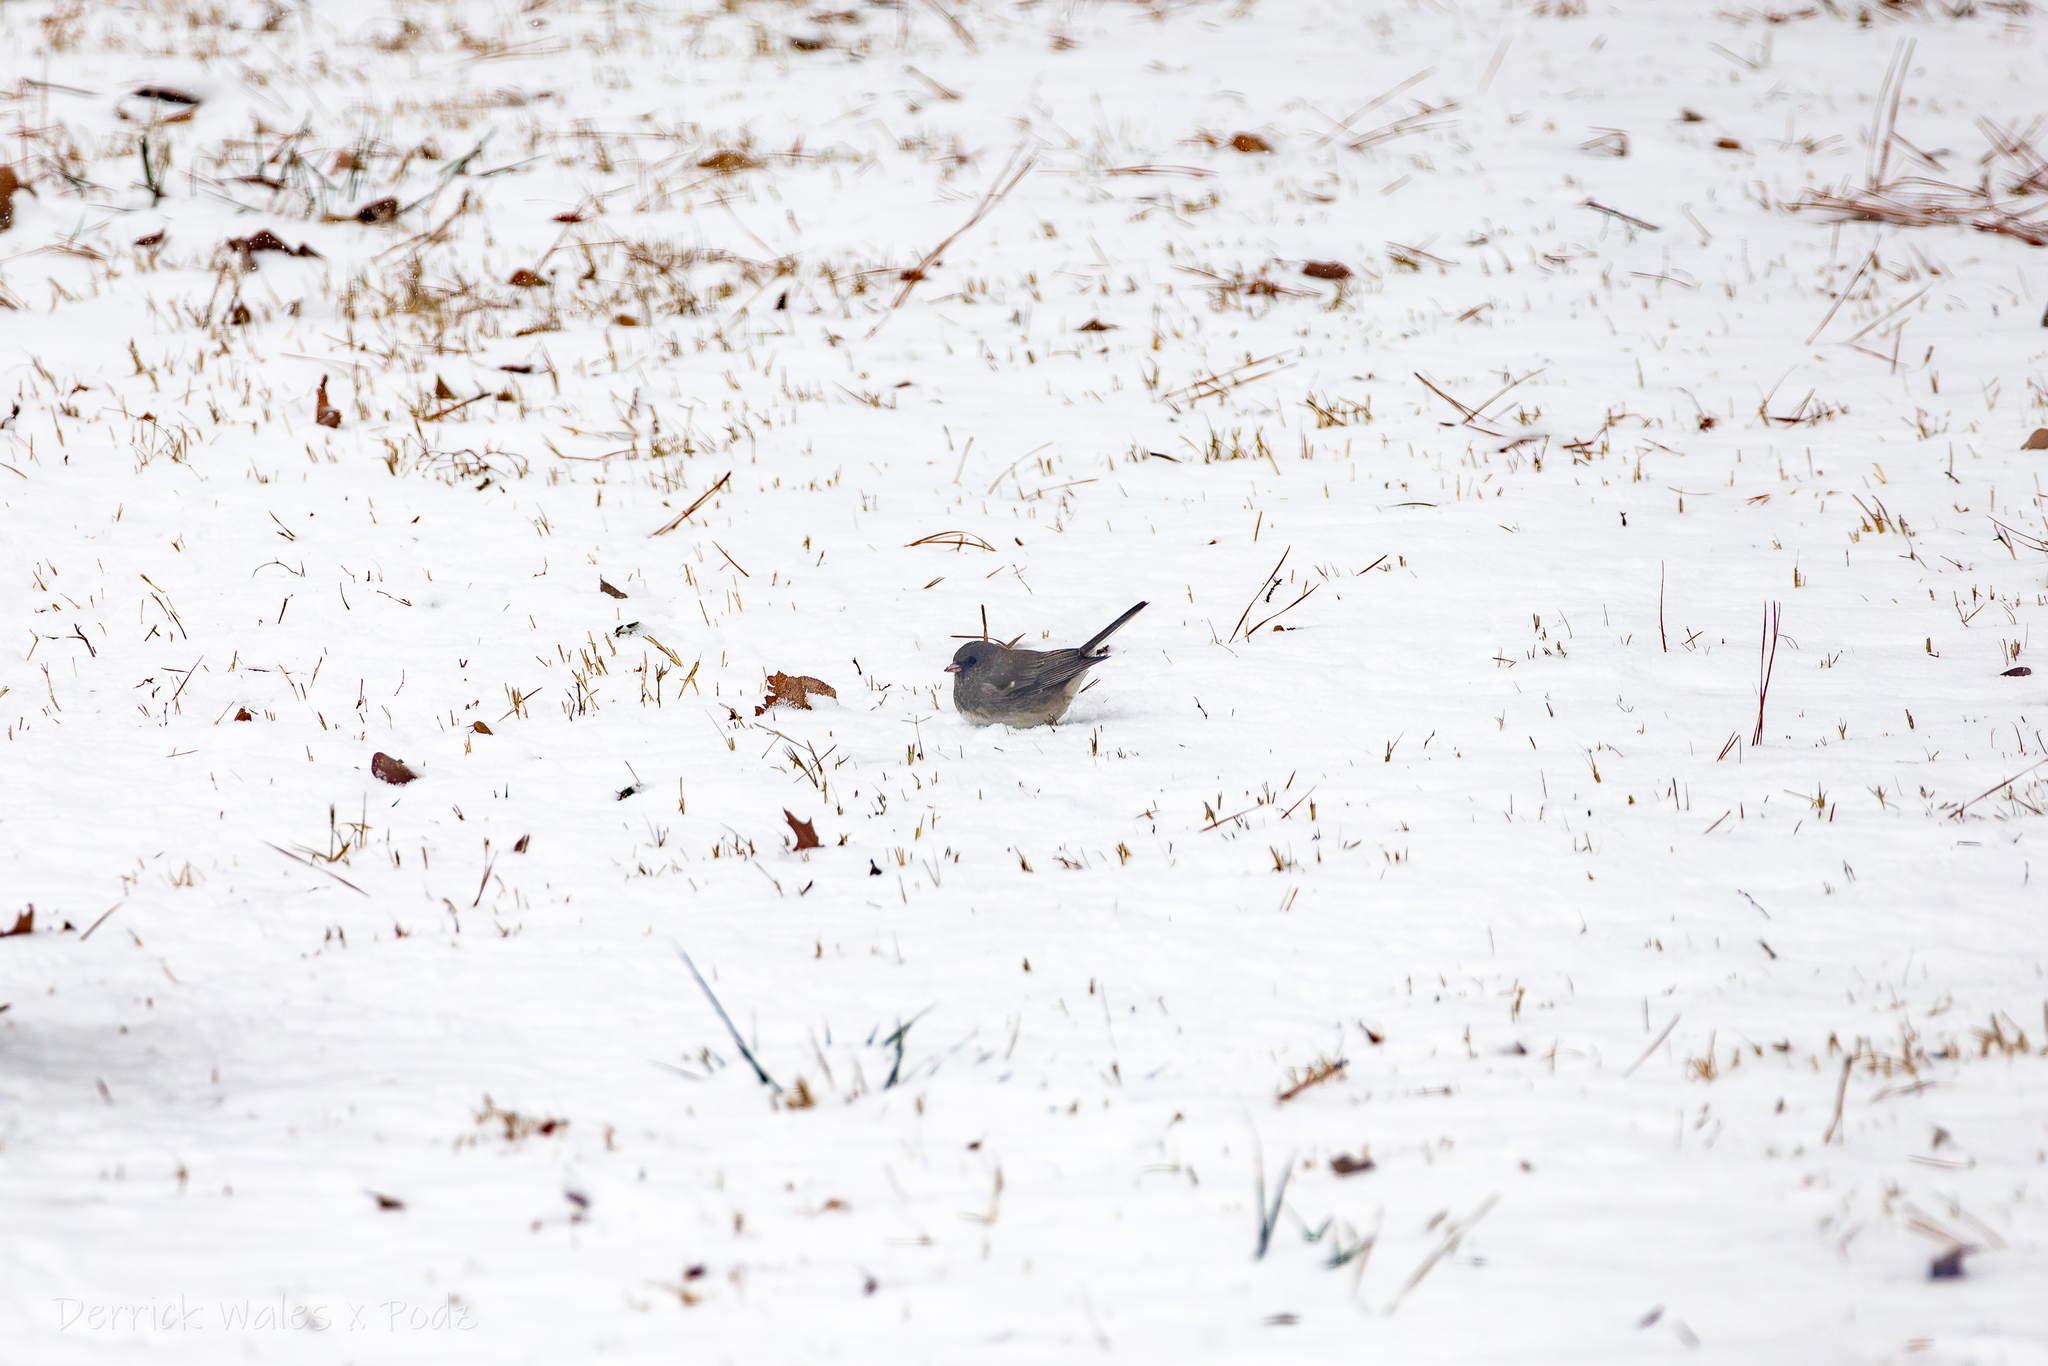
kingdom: Animalia
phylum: Chordata
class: Aves
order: Passeriformes
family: Passerellidae
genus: Junco
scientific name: Junco hyemalis
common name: Dark-eyed junco
